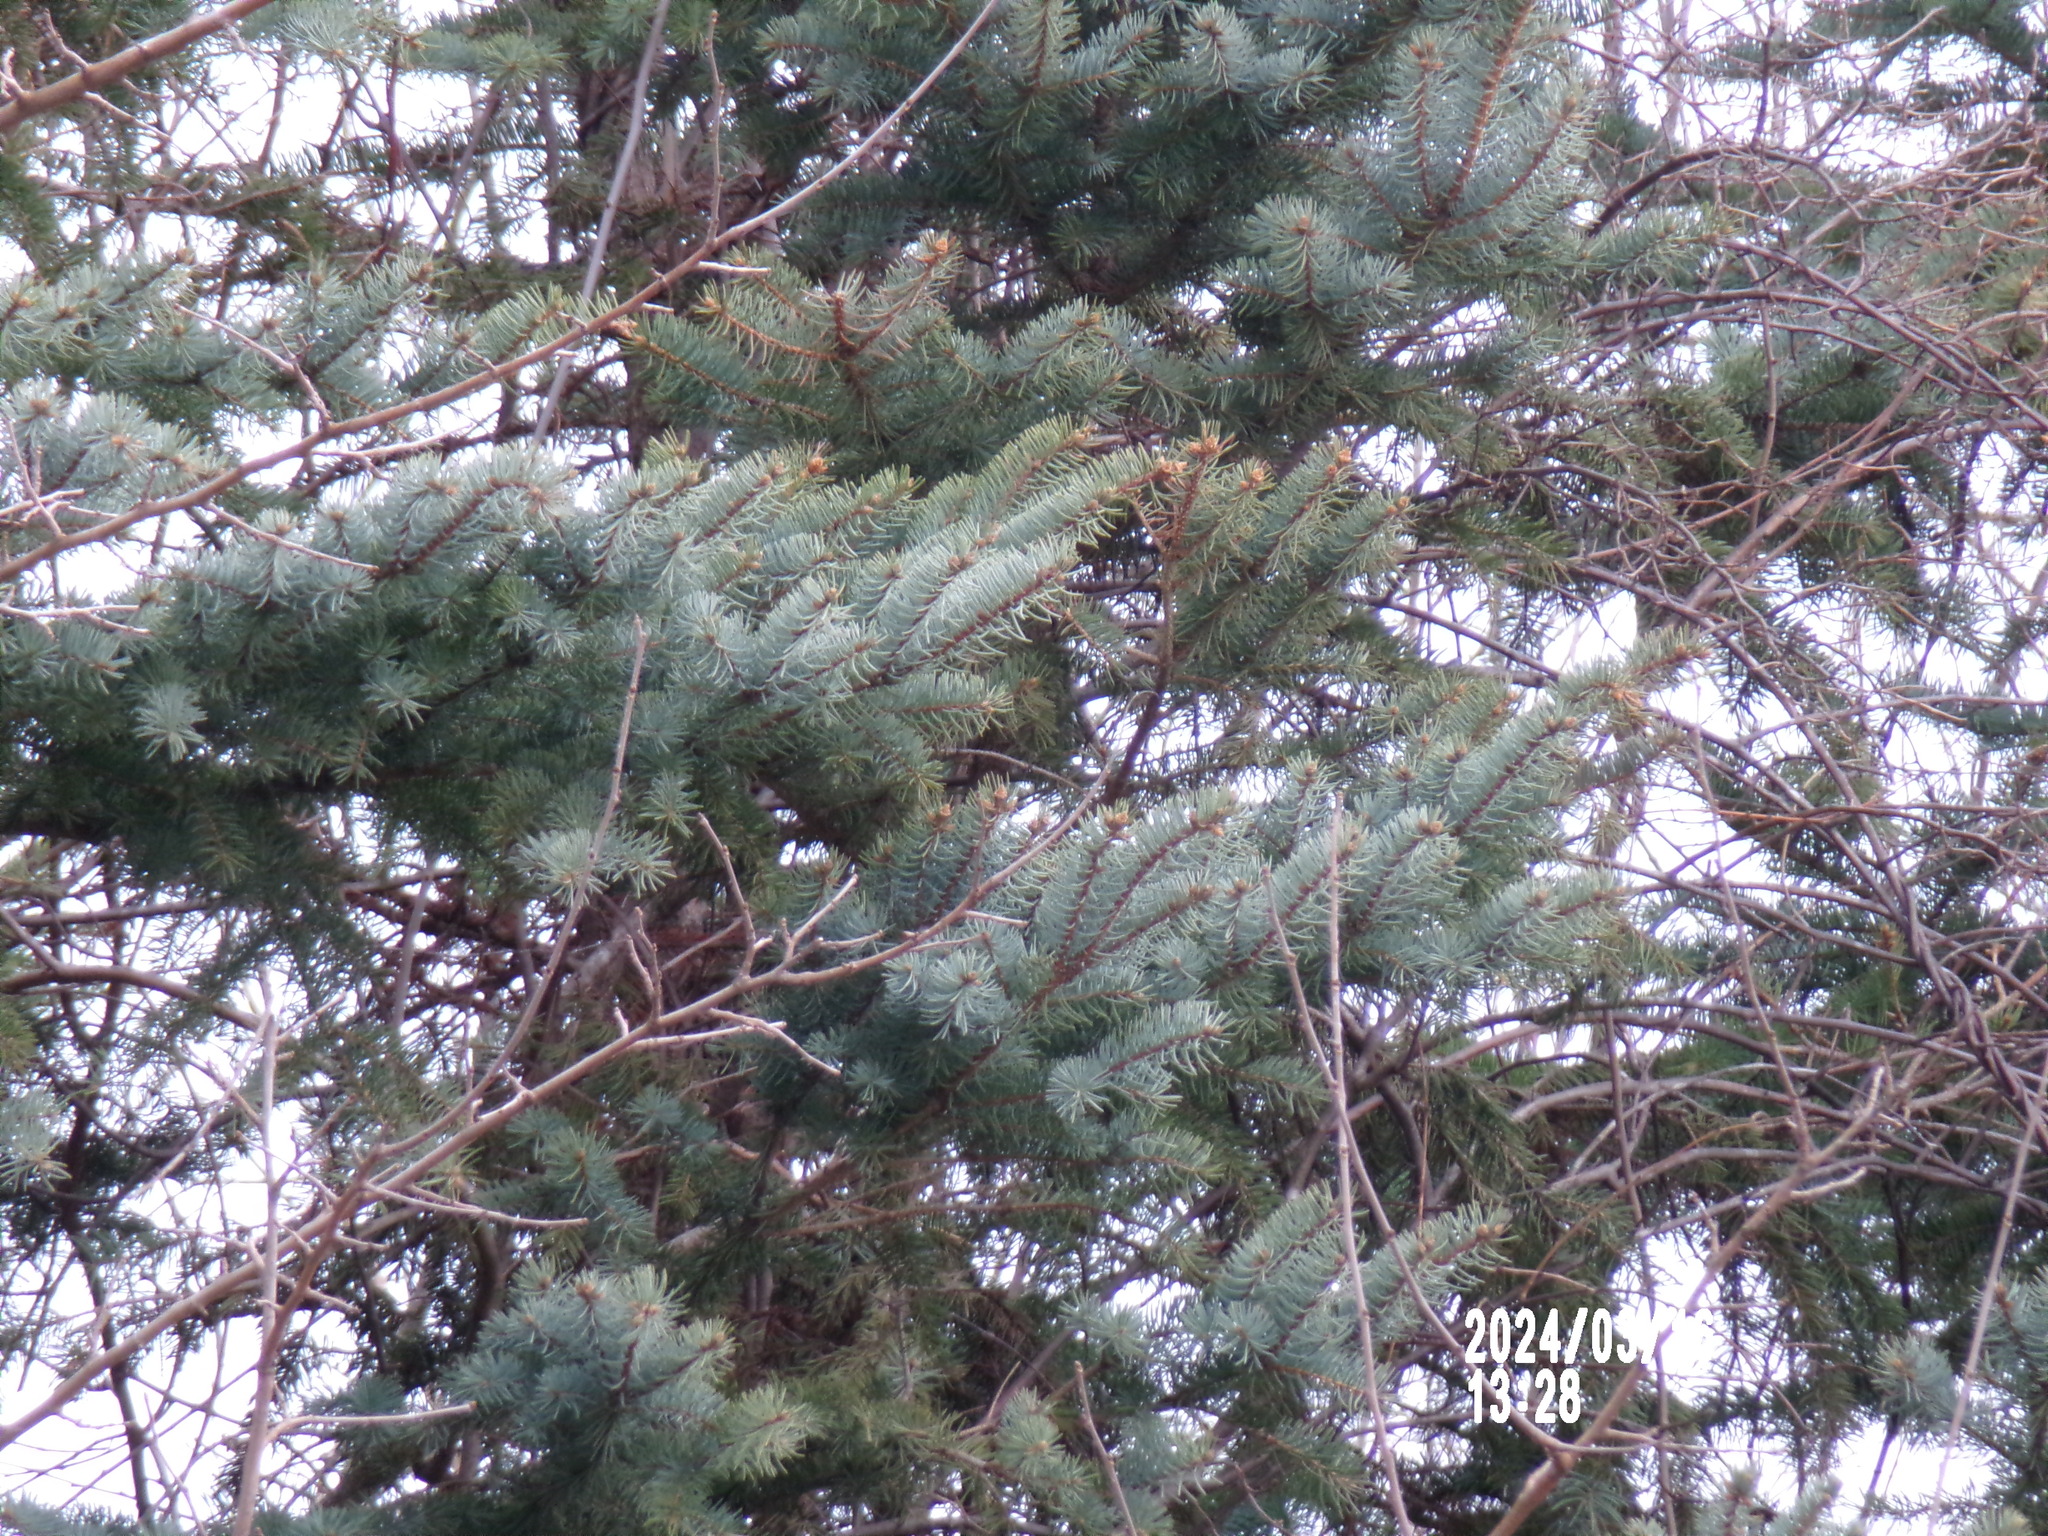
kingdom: Plantae
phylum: Tracheophyta
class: Pinopsida
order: Pinales
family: Pinaceae
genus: Picea
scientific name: Picea pungens
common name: Colorado spruce
